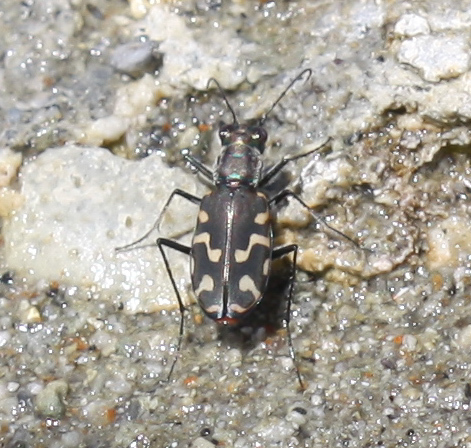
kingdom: Animalia
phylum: Arthropoda
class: Insecta
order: Coleoptera
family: Carabidae
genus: Cicindela
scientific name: Cicindela hemorrhagica
